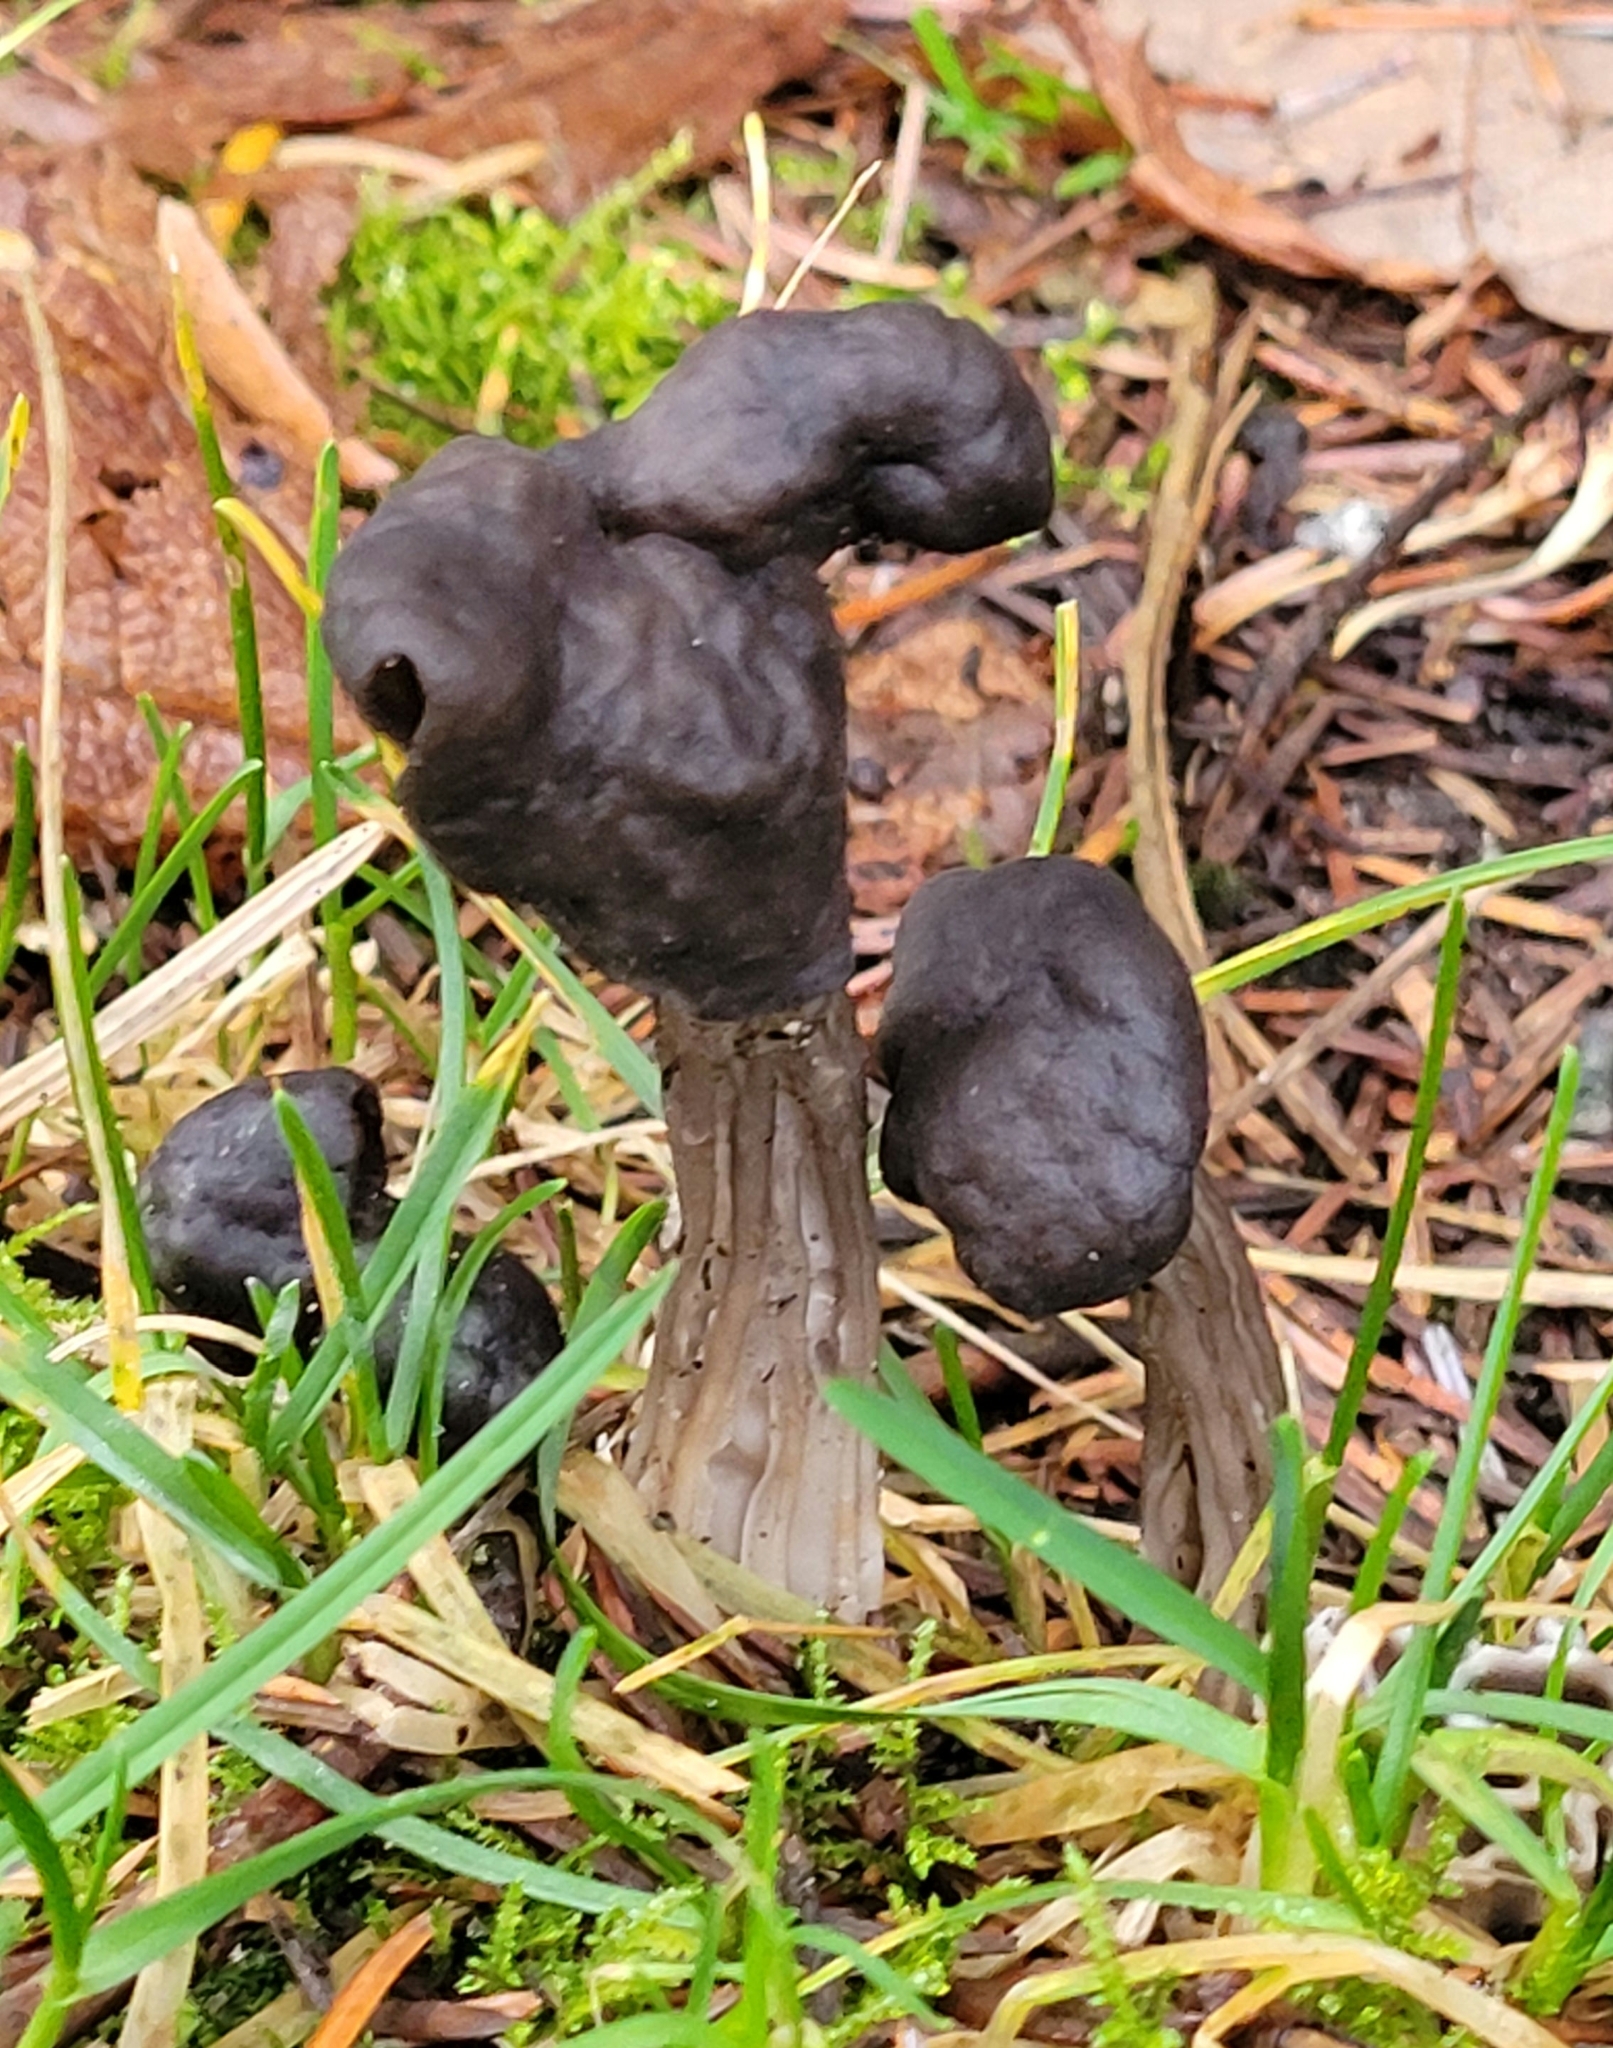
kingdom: Fungi
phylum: Ascomycota
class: Pezizomycetes
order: Pezizales
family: Helvellaceae
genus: Helvella
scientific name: Helvella vespertina
